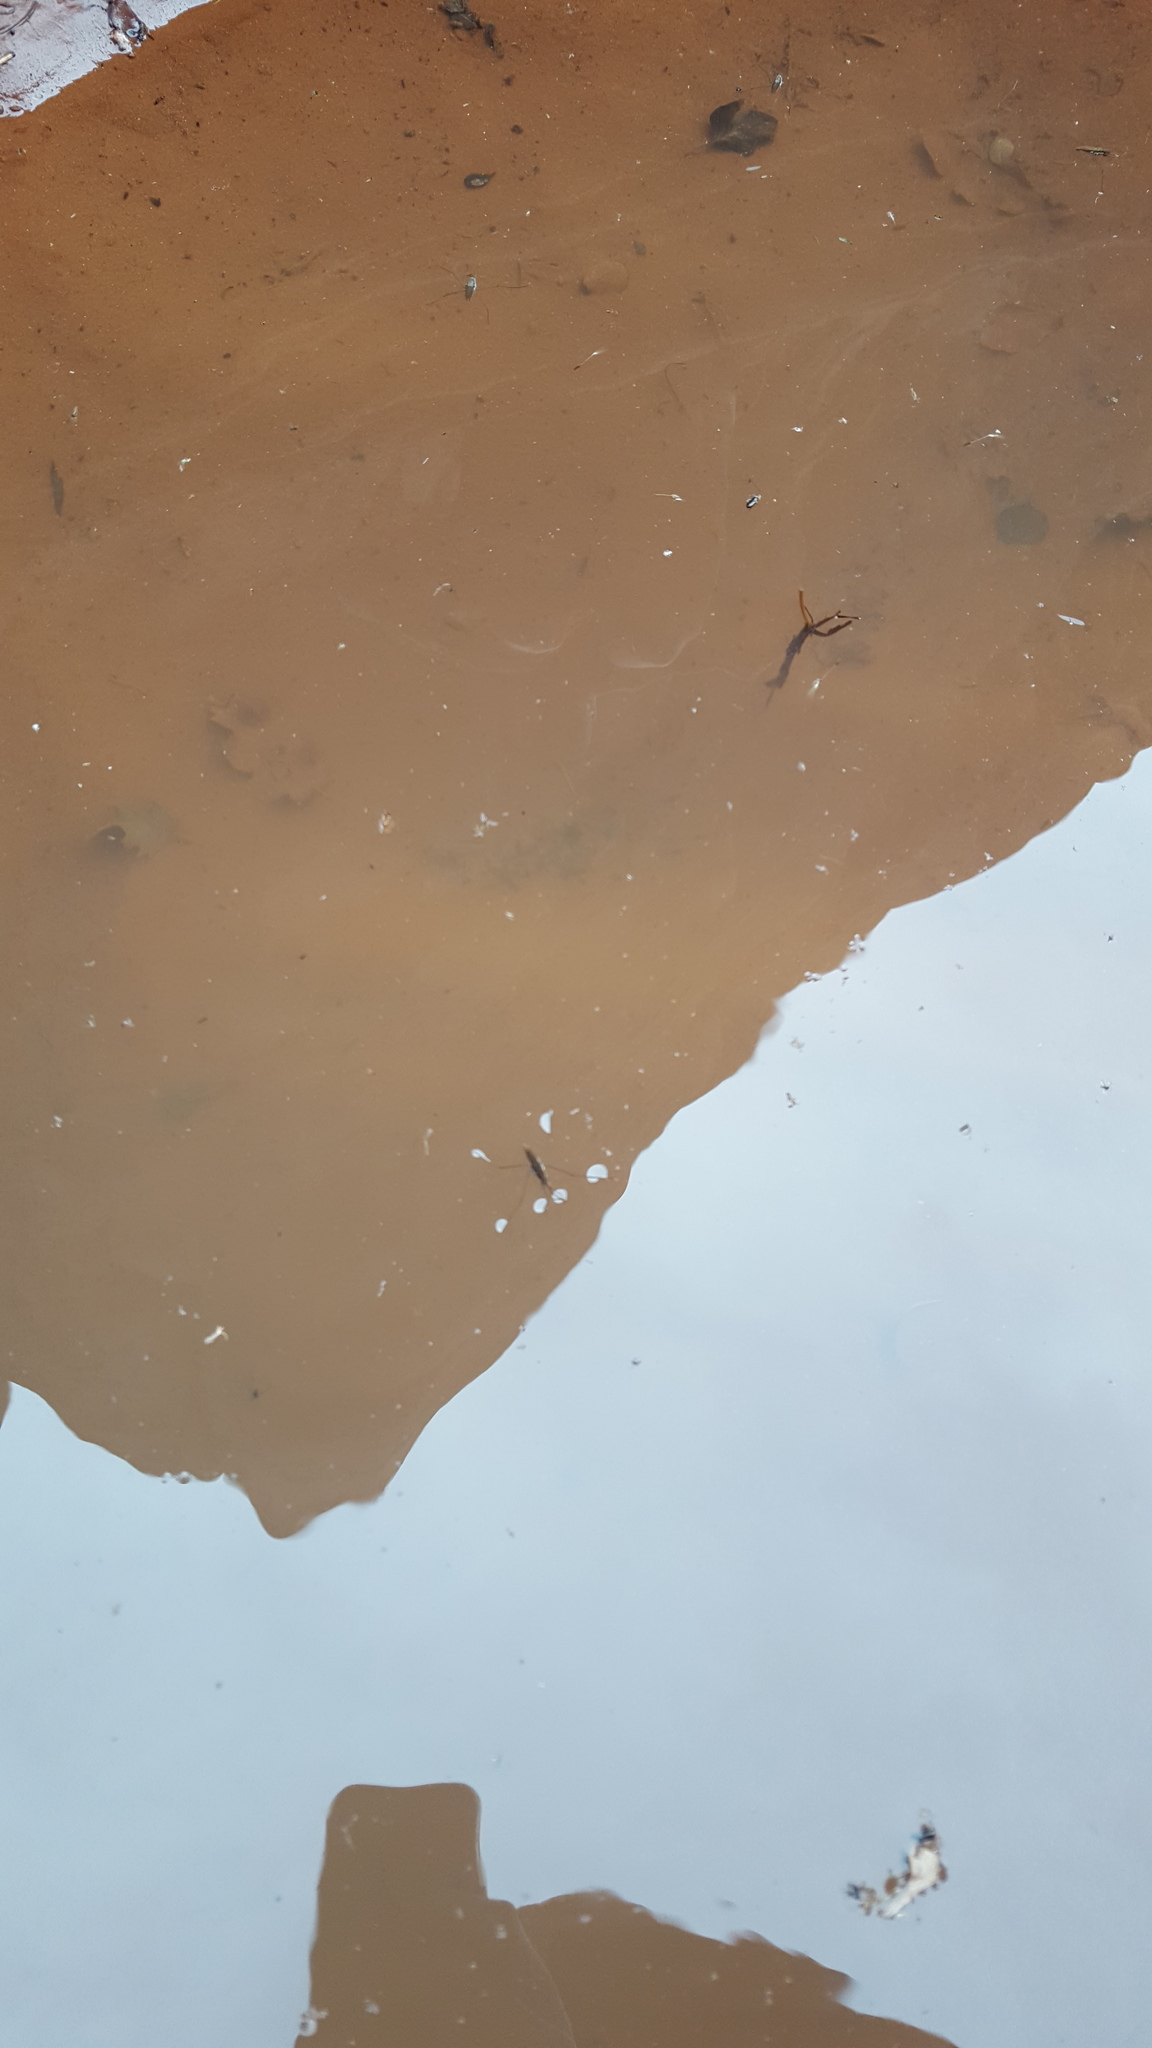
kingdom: Animalia
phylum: Arthropoda
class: Insecta
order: Hemiptera
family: Gerridae
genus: Aquarius
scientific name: Aquarius remigis
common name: Common water strider
